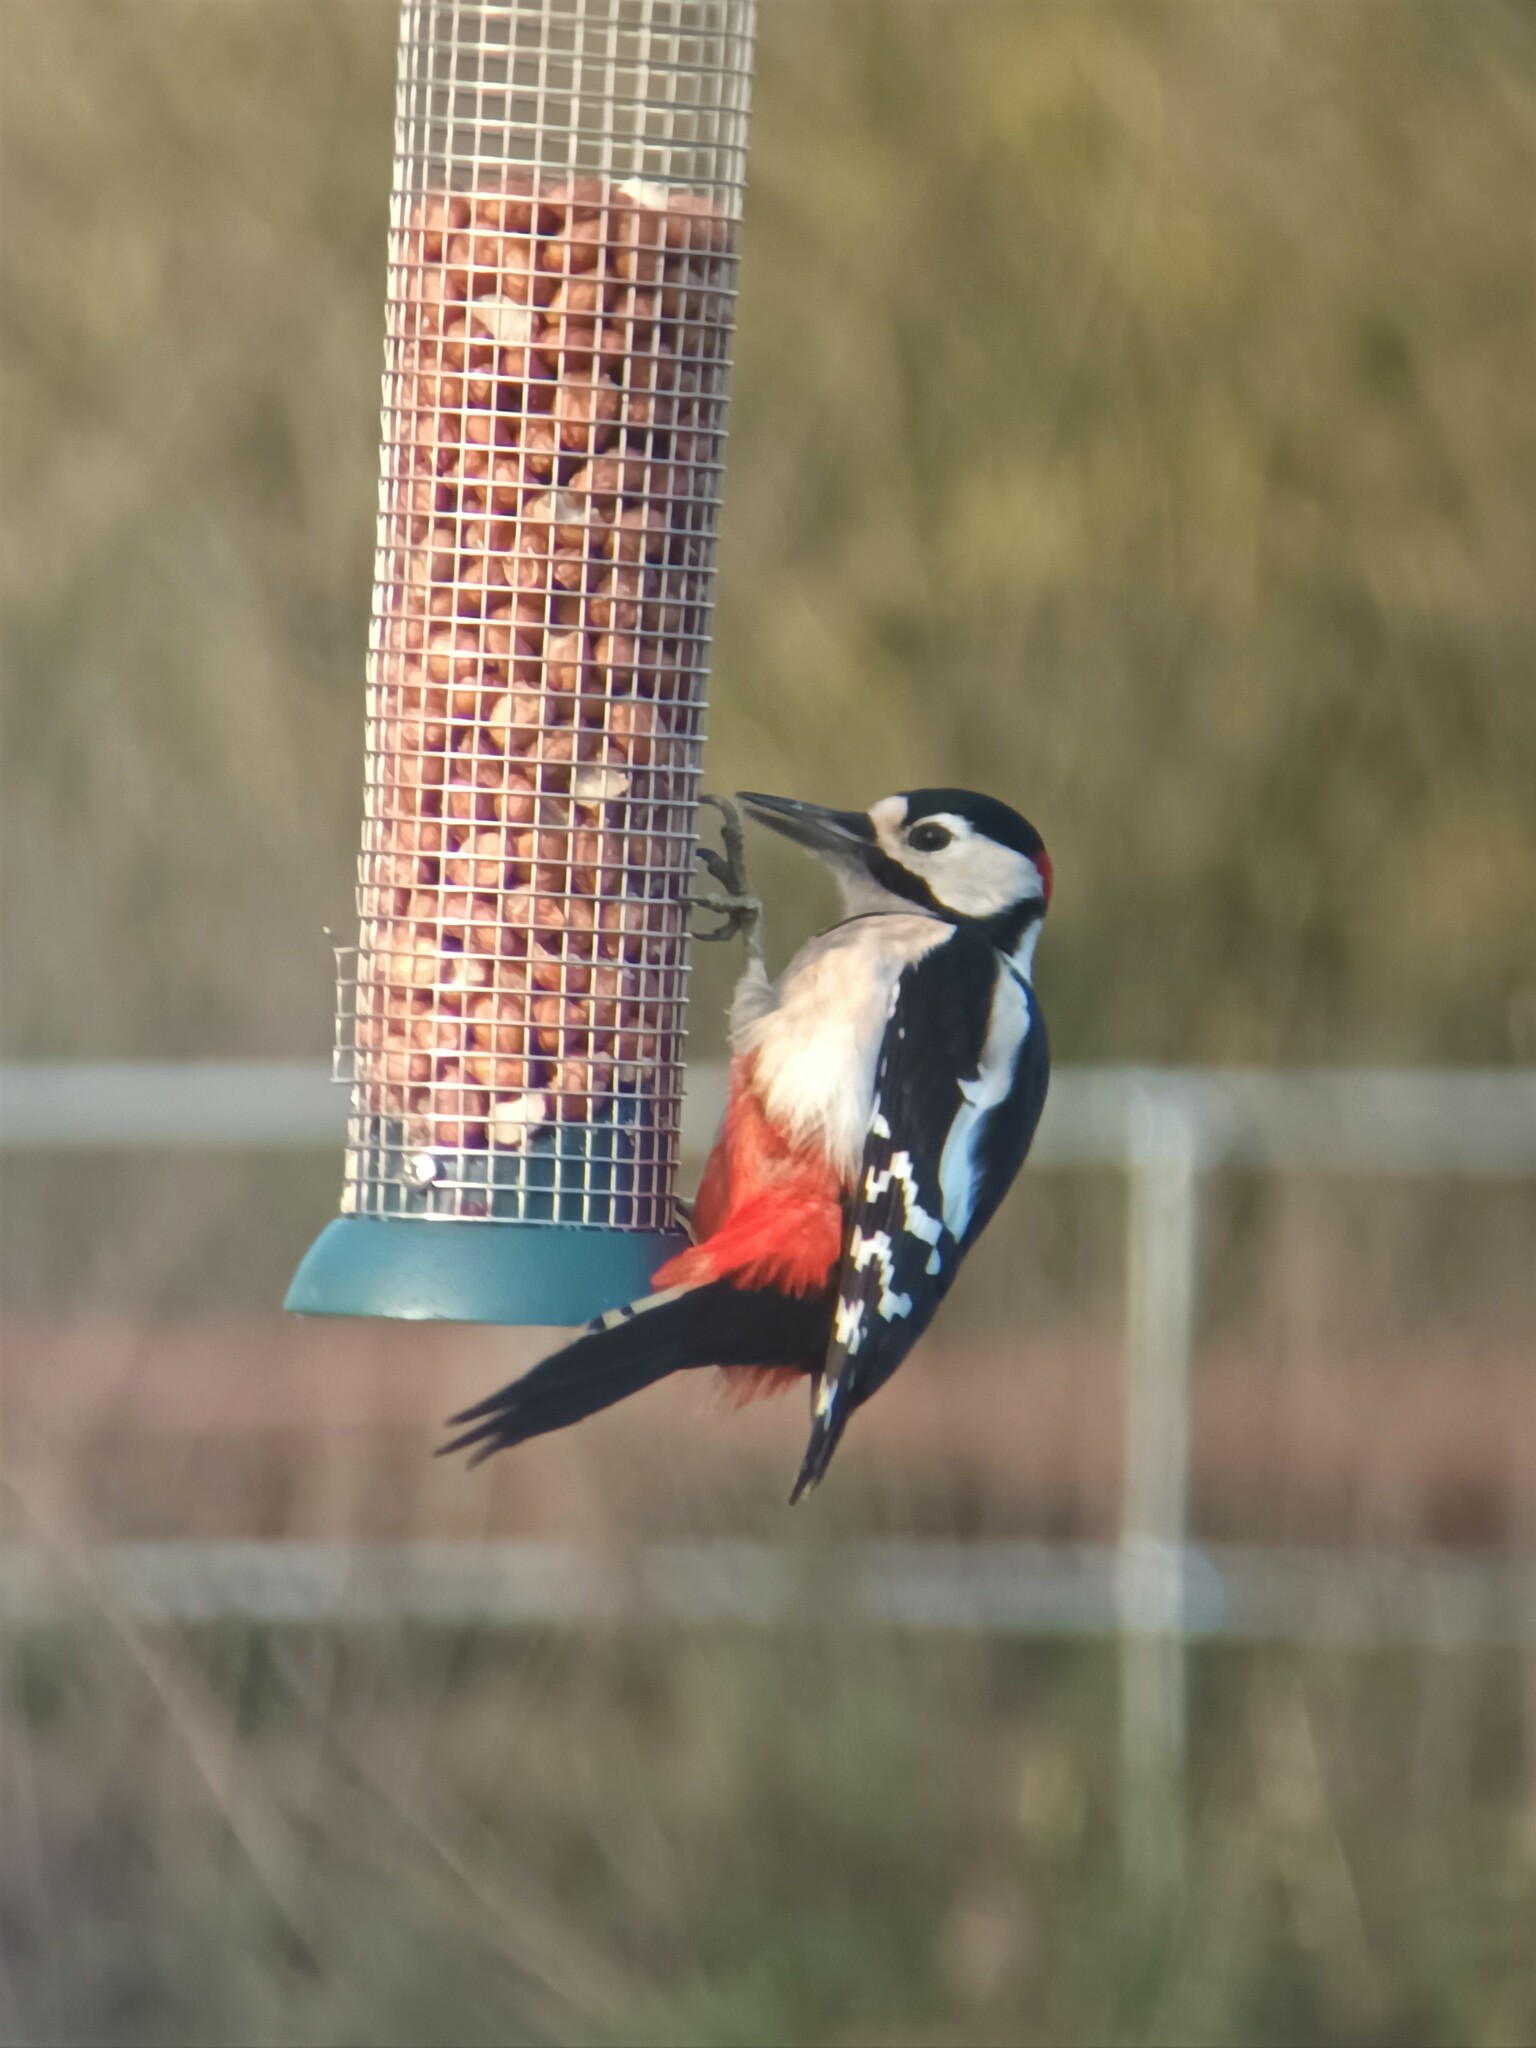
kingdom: Animalia
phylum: Chordata
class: Aves
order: Piciformes
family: Picidae
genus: Dendrocopos
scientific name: Dendrocopos major
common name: Great spotted woodpecker
